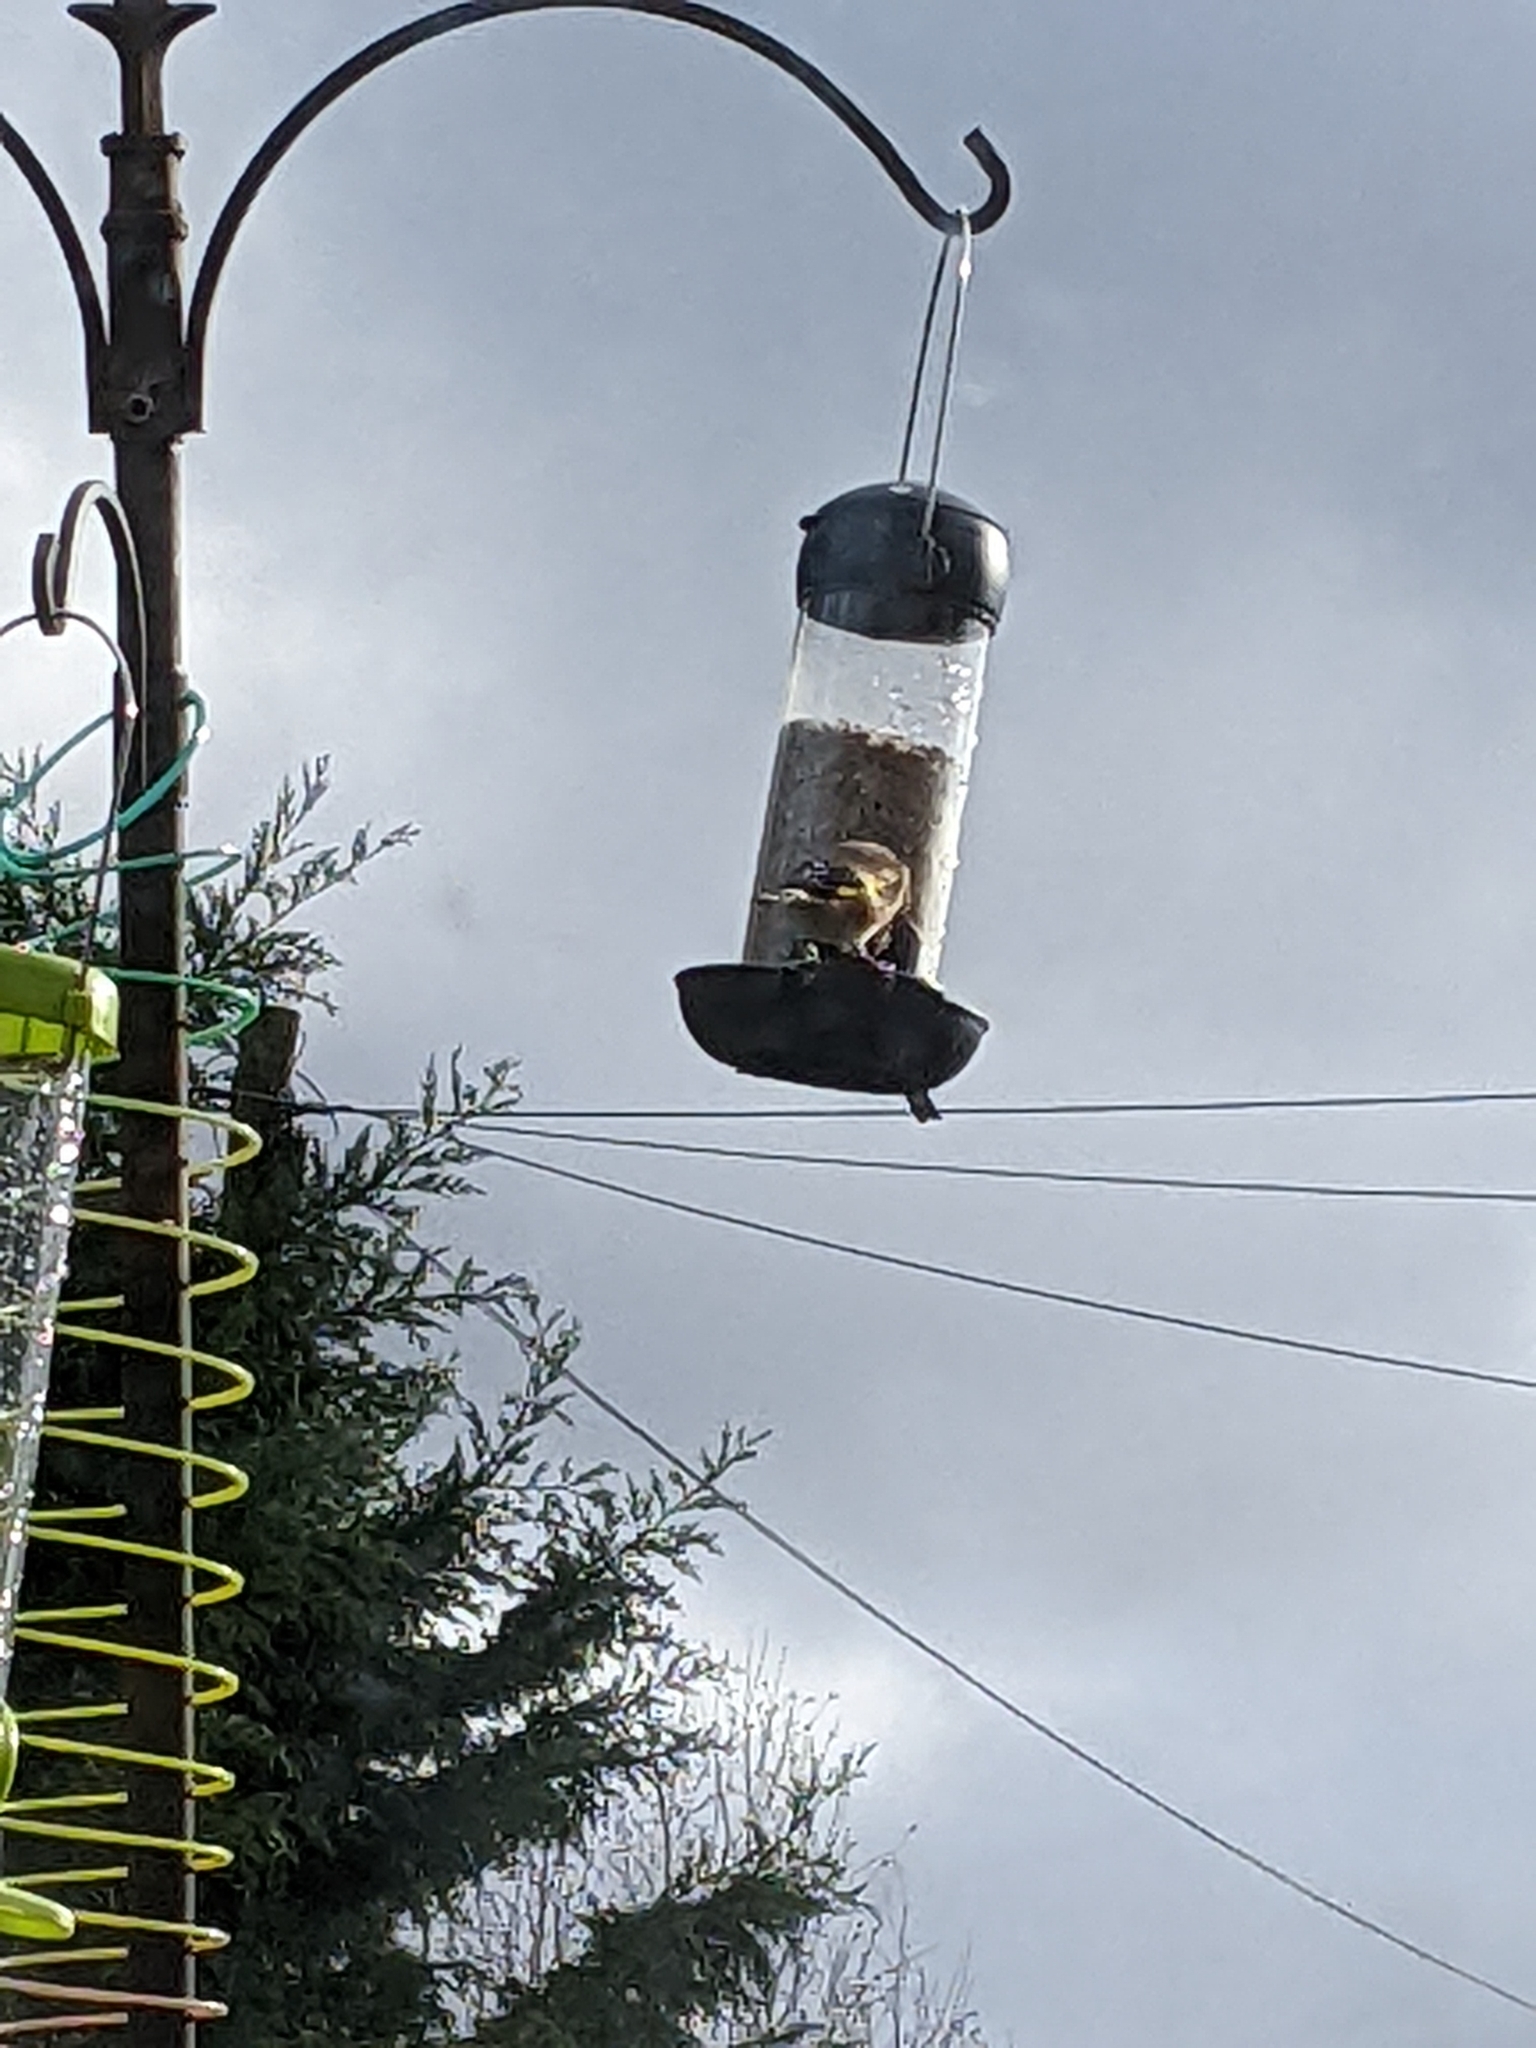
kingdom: Animalia
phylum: Chordata
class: Aves
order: Passeriformes
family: Fringillidae
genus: Carduelis
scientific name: Carduelis carduelis
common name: European goldfinch
